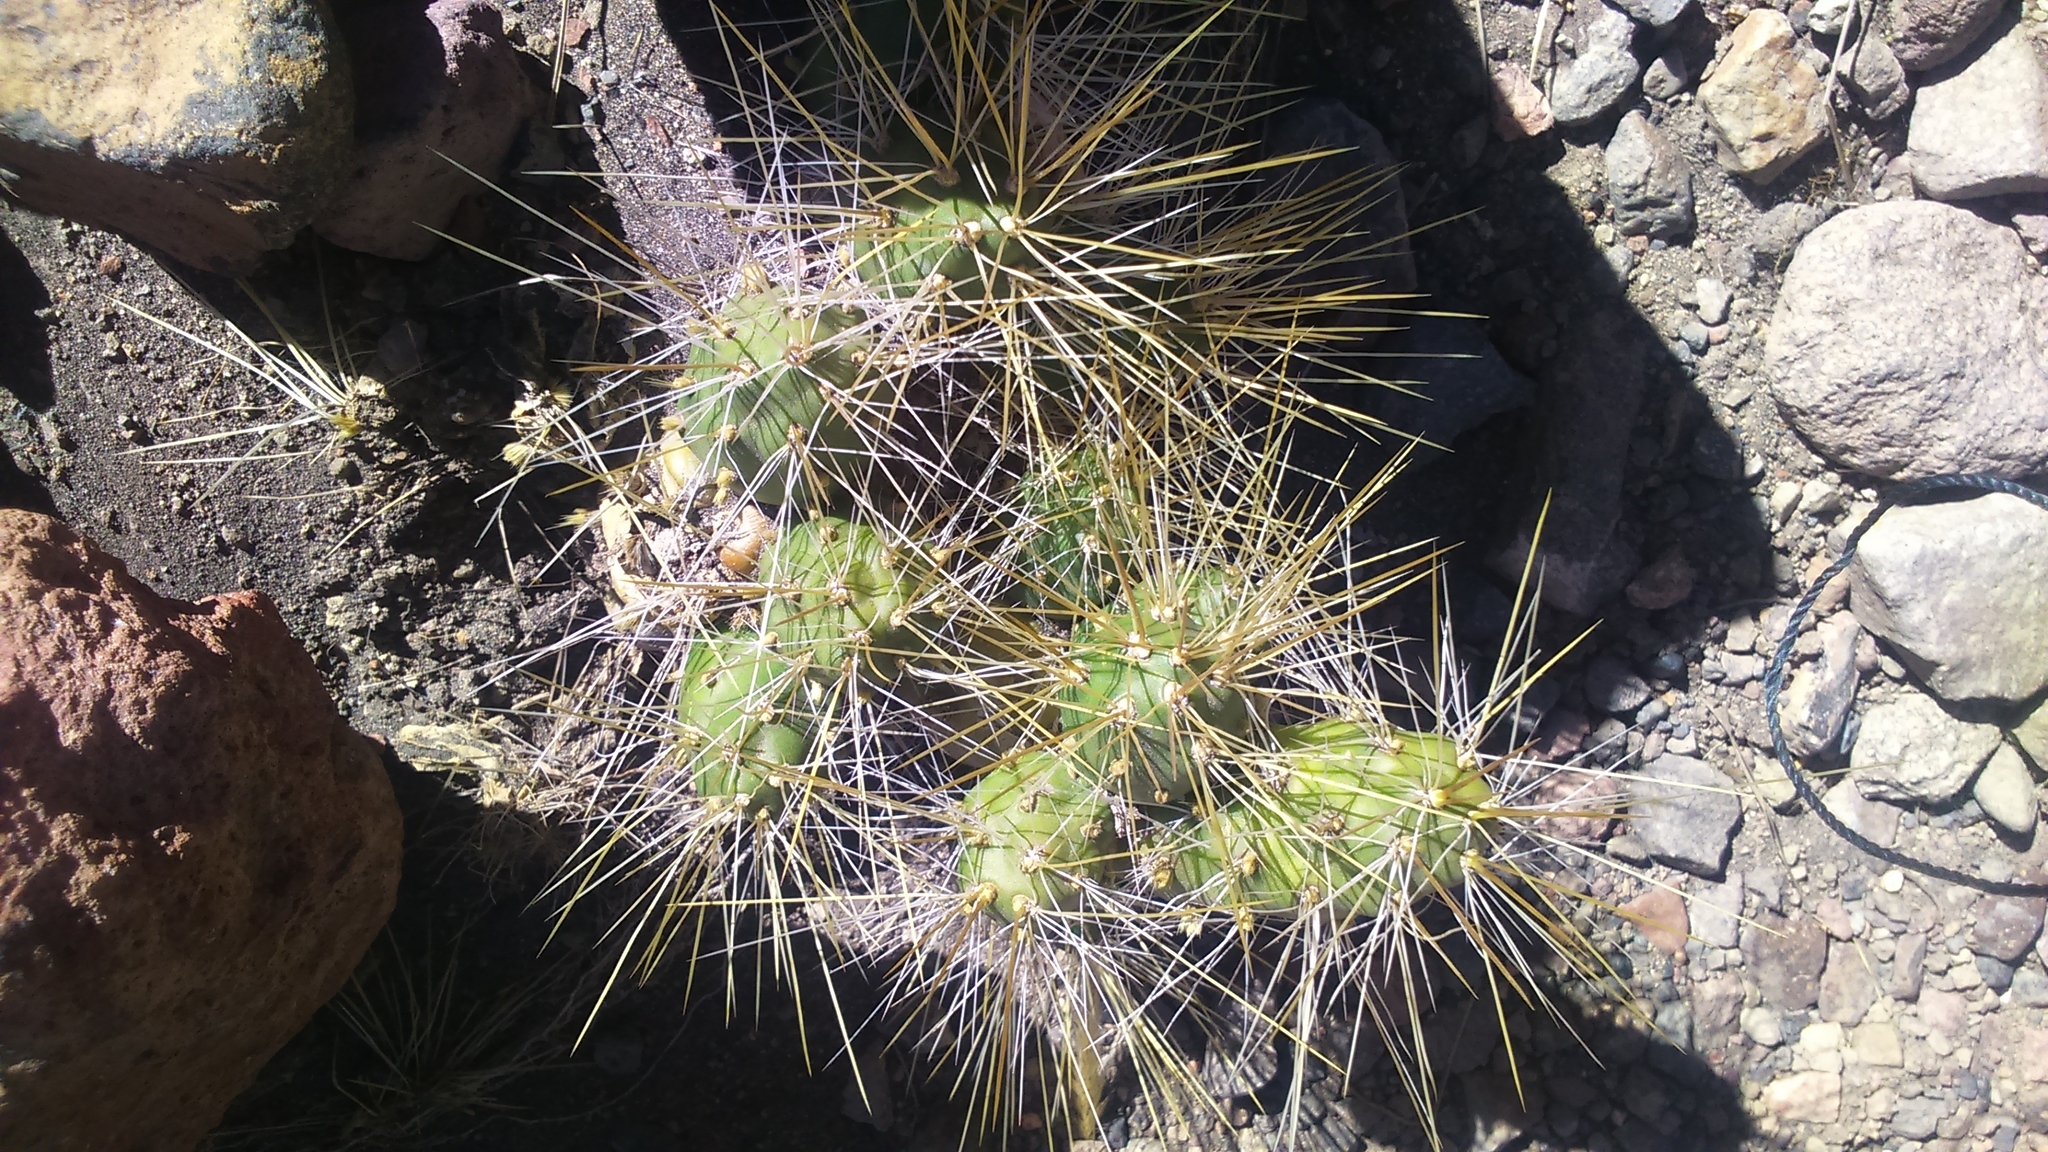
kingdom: Plantae
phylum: Tracheophyta
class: Magnoliopsida
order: Caryophyllales
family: Cactaceae
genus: Cumulopuntia
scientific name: Cumulopuntia glomerata
